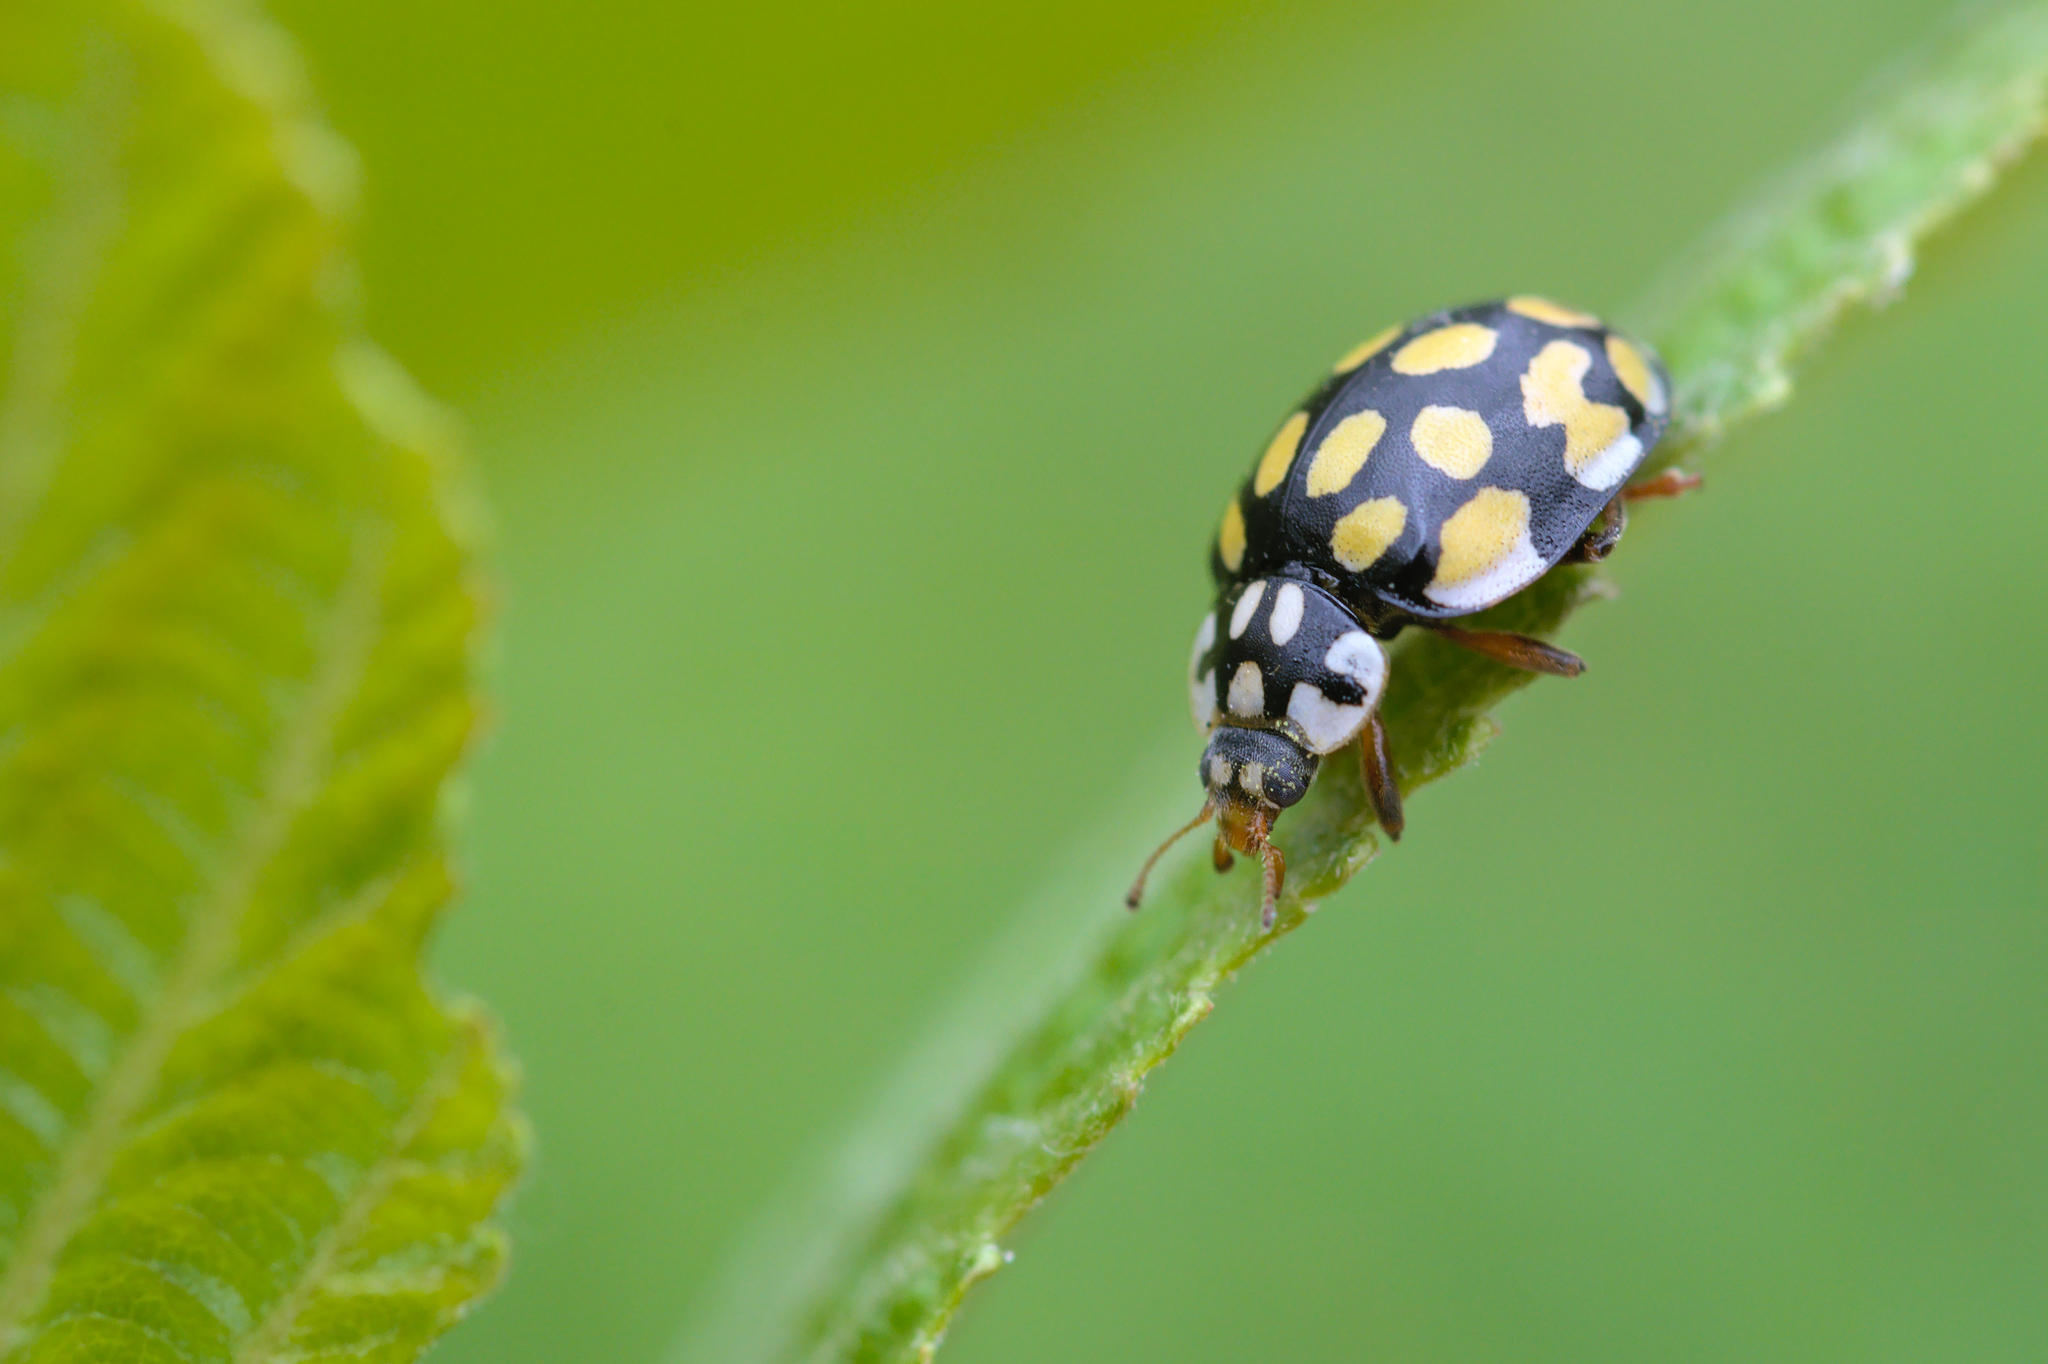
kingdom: Animalia
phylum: Arthropoda
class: Insecta
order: Coleoptera
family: Coccinellidae
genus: Sospita
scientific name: Sospita vigintiguttata
